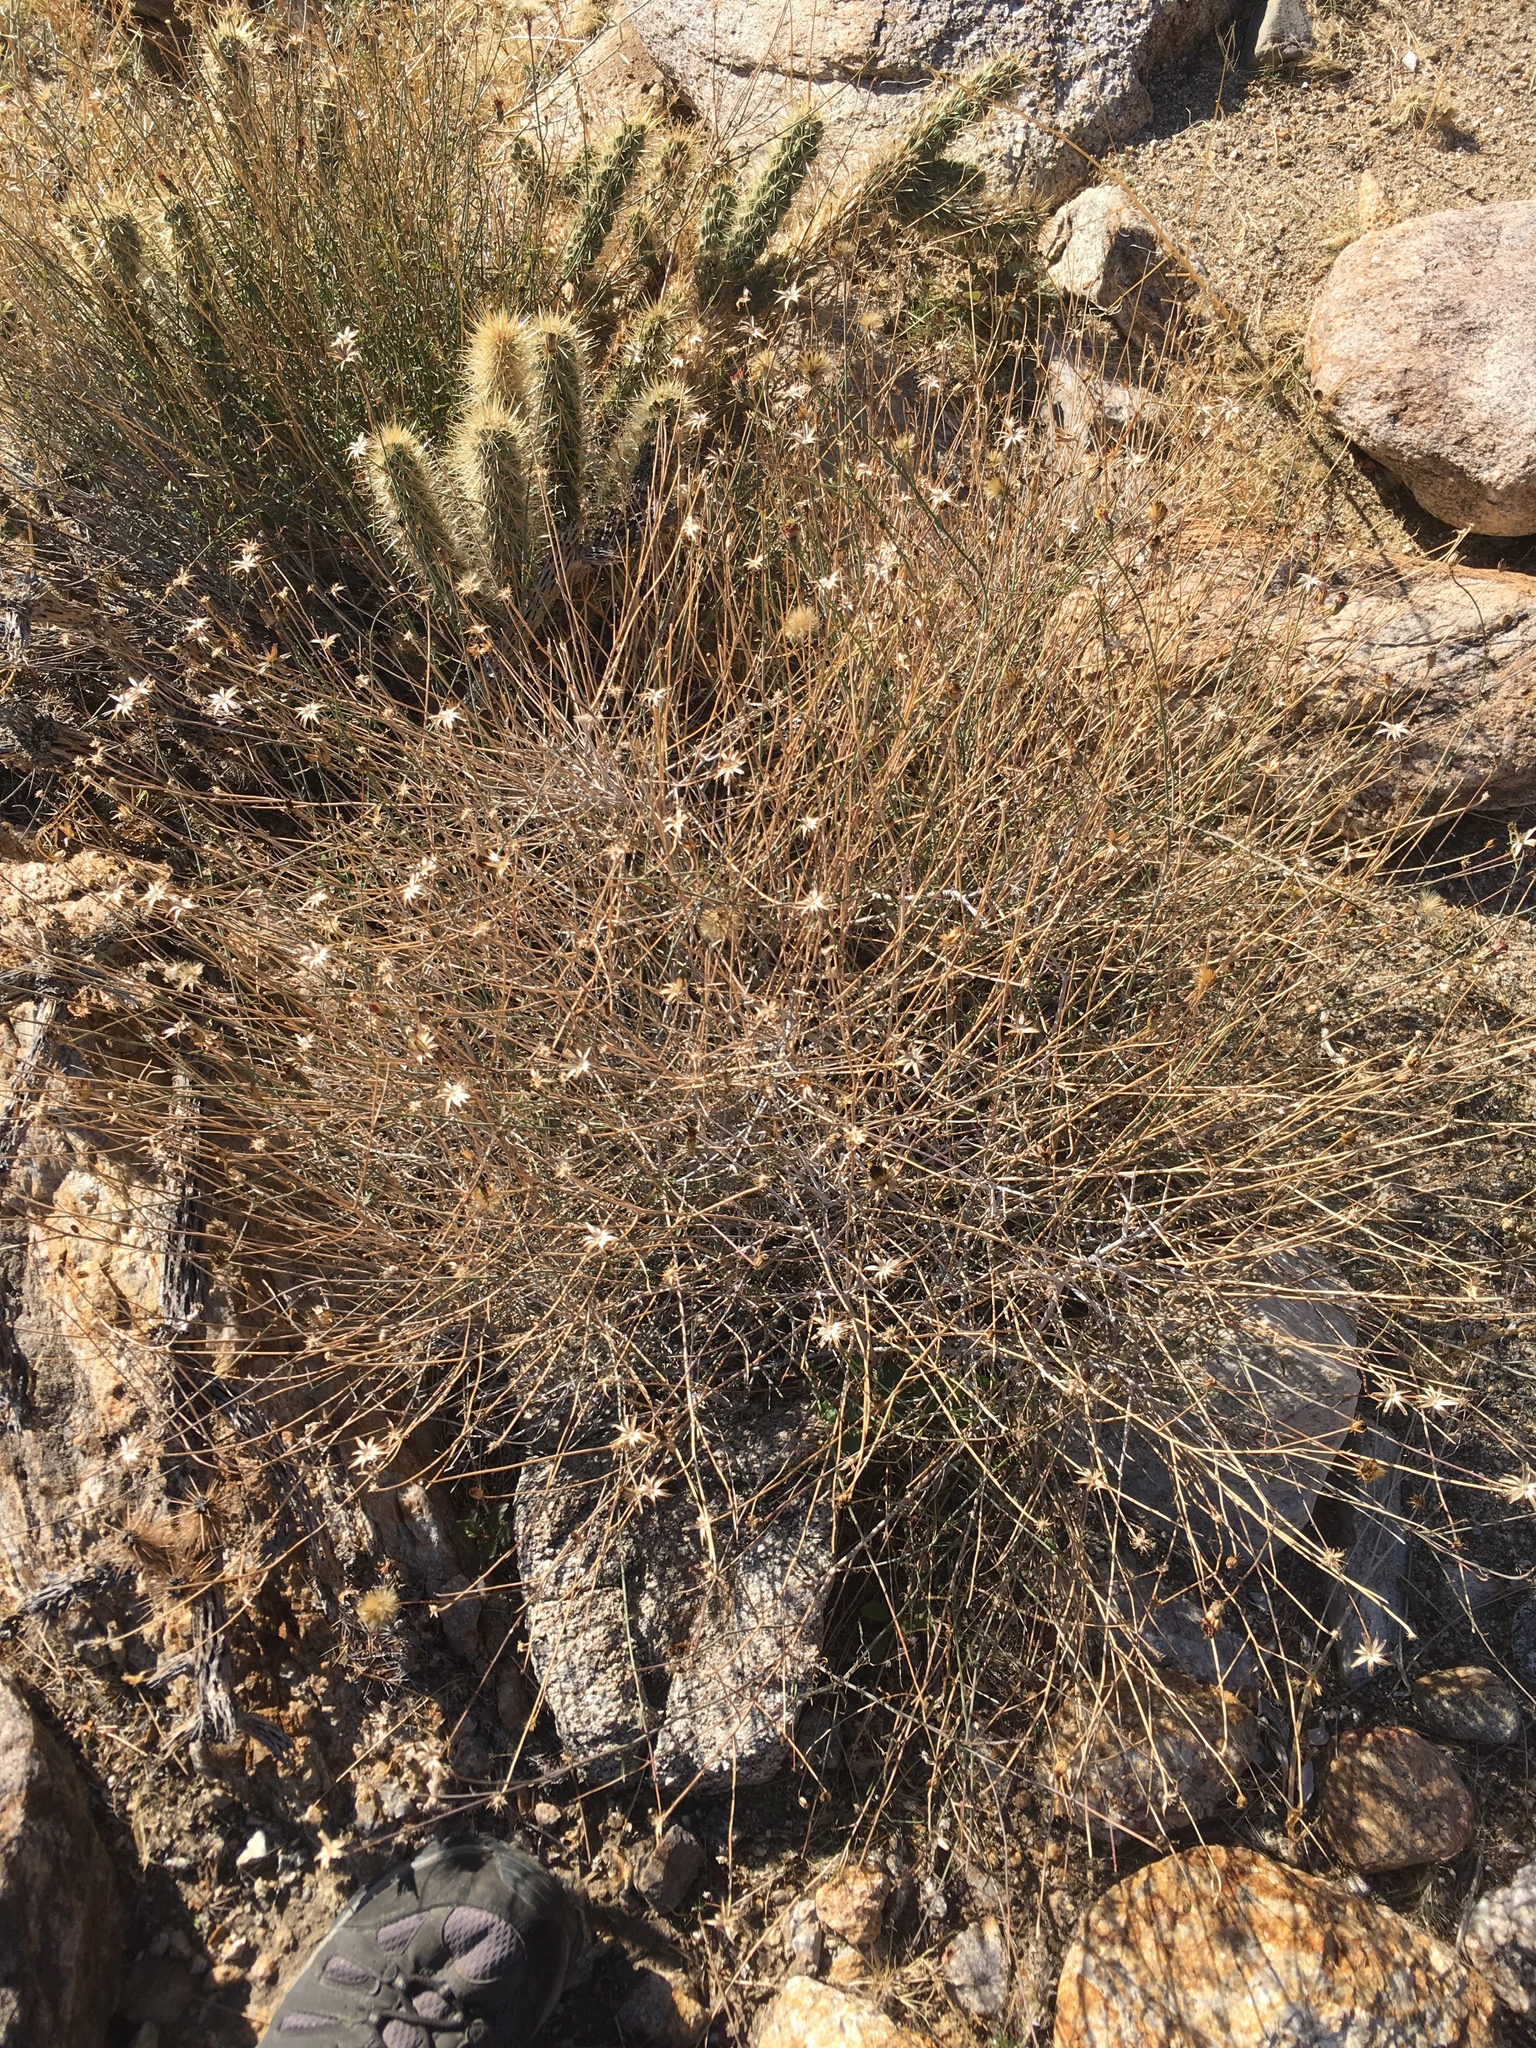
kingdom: Plantae
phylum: Tracheophyta
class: Magnoliopsida
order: Asterales
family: Asteraceae
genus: Adenophyllum
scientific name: Adenophyllum porophylloides
